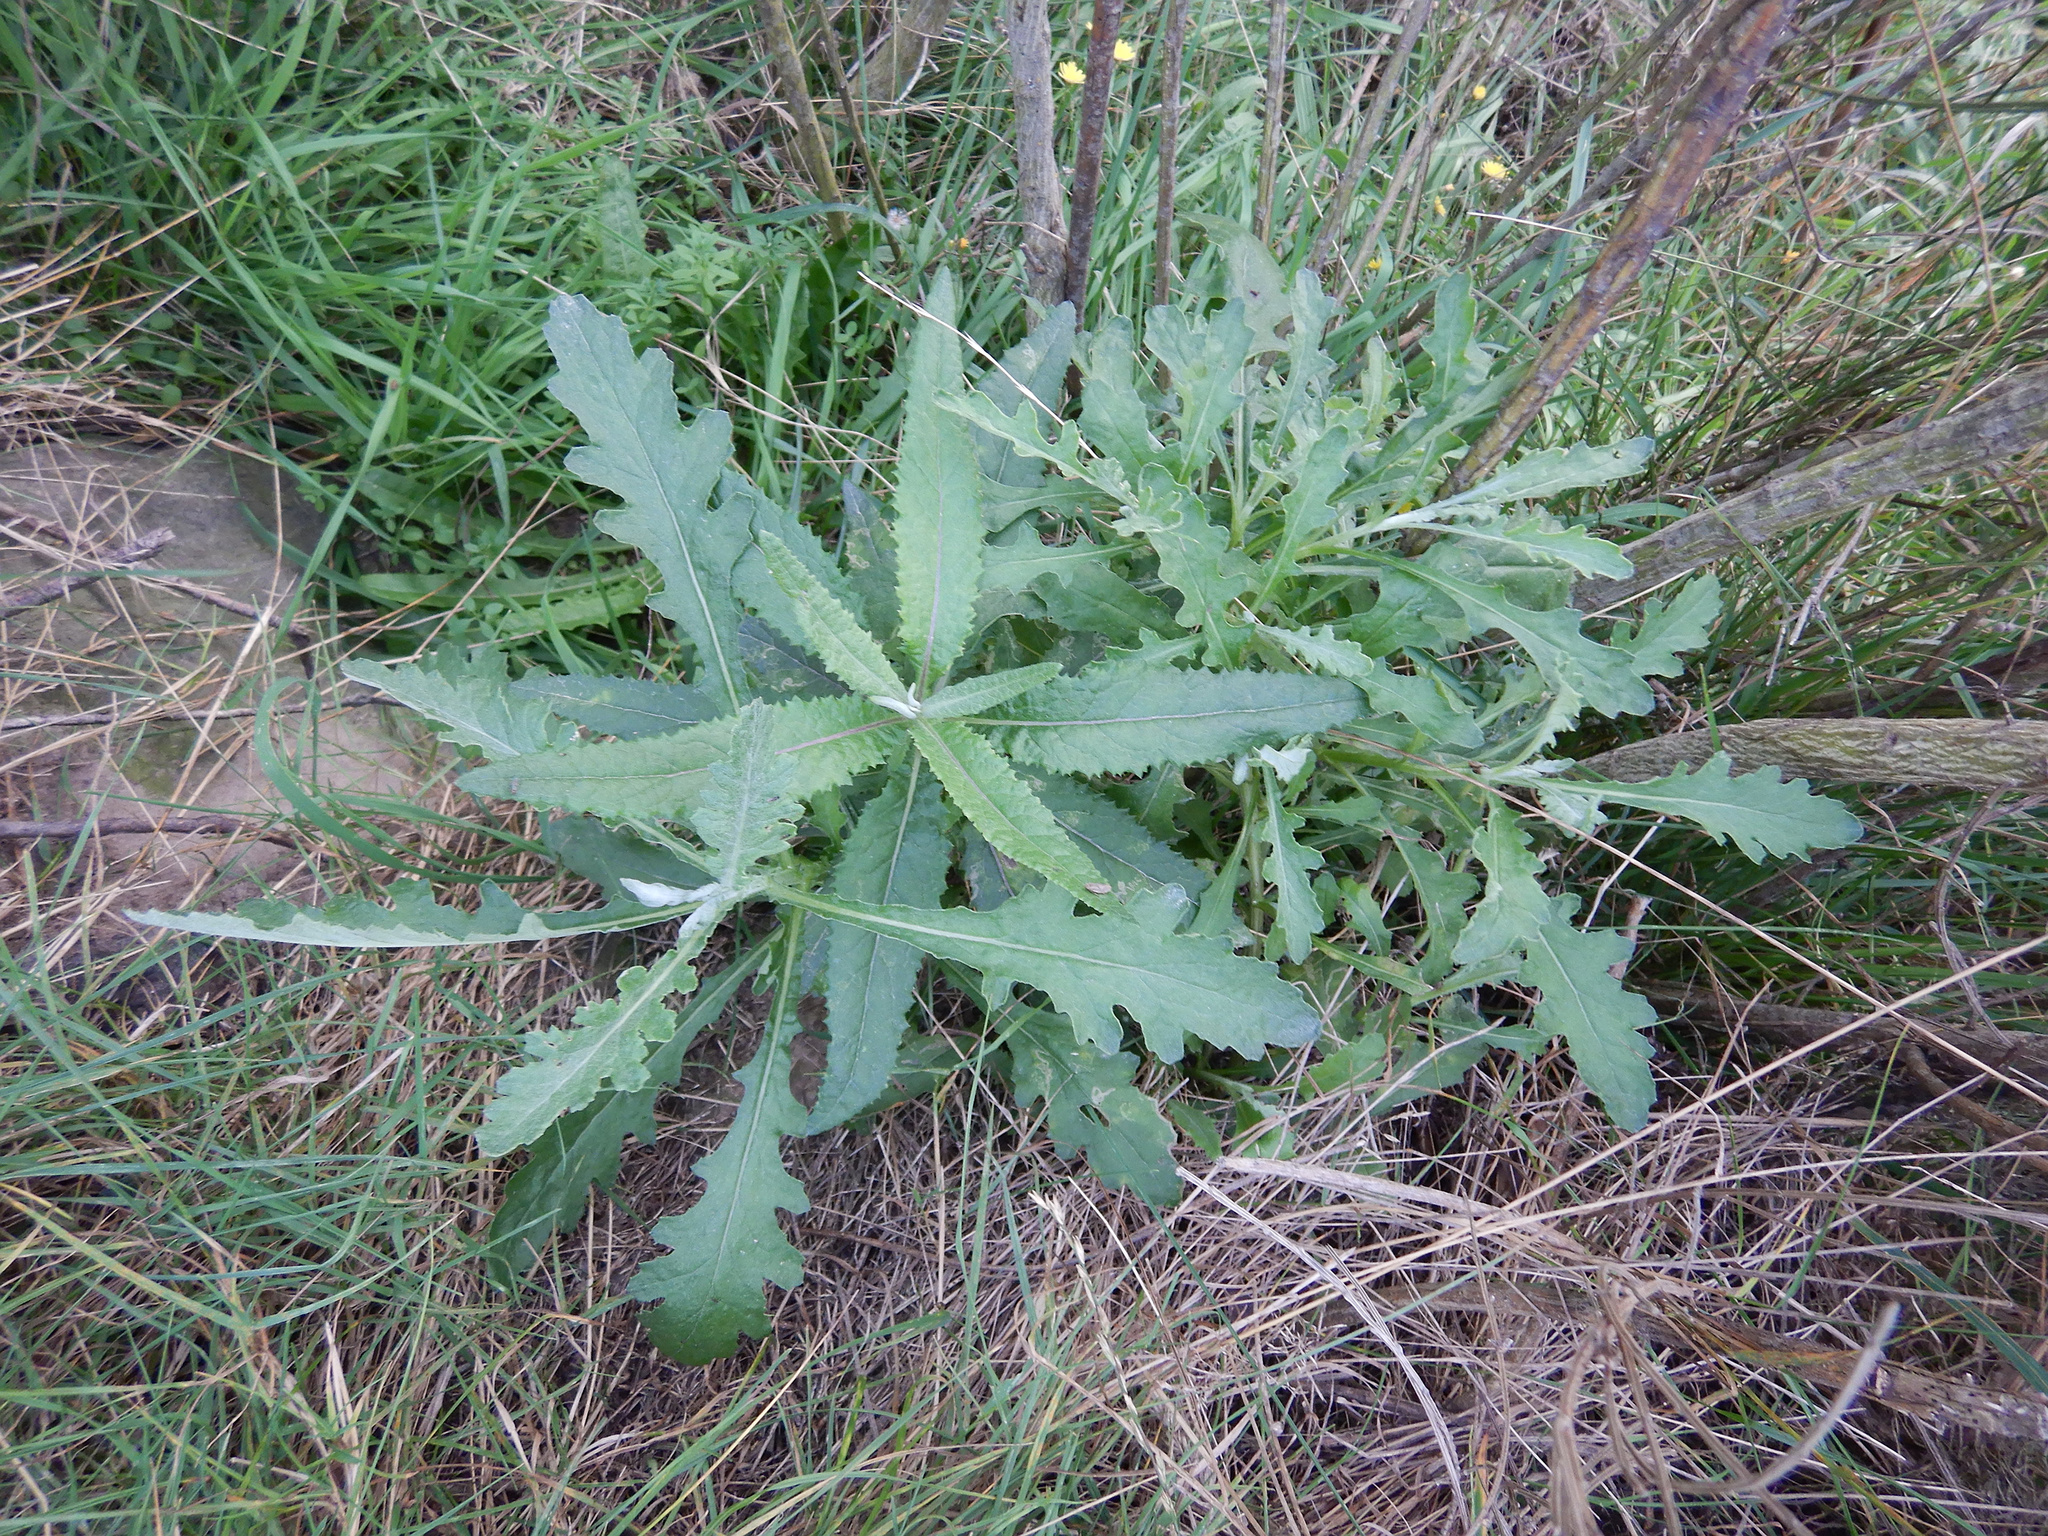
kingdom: Plantae
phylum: Tracheophyta
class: Magnoliopsida
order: Asterales
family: Asteraceae
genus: Senecio
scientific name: Senecio glomeratus
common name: Cutleaf burnweed
